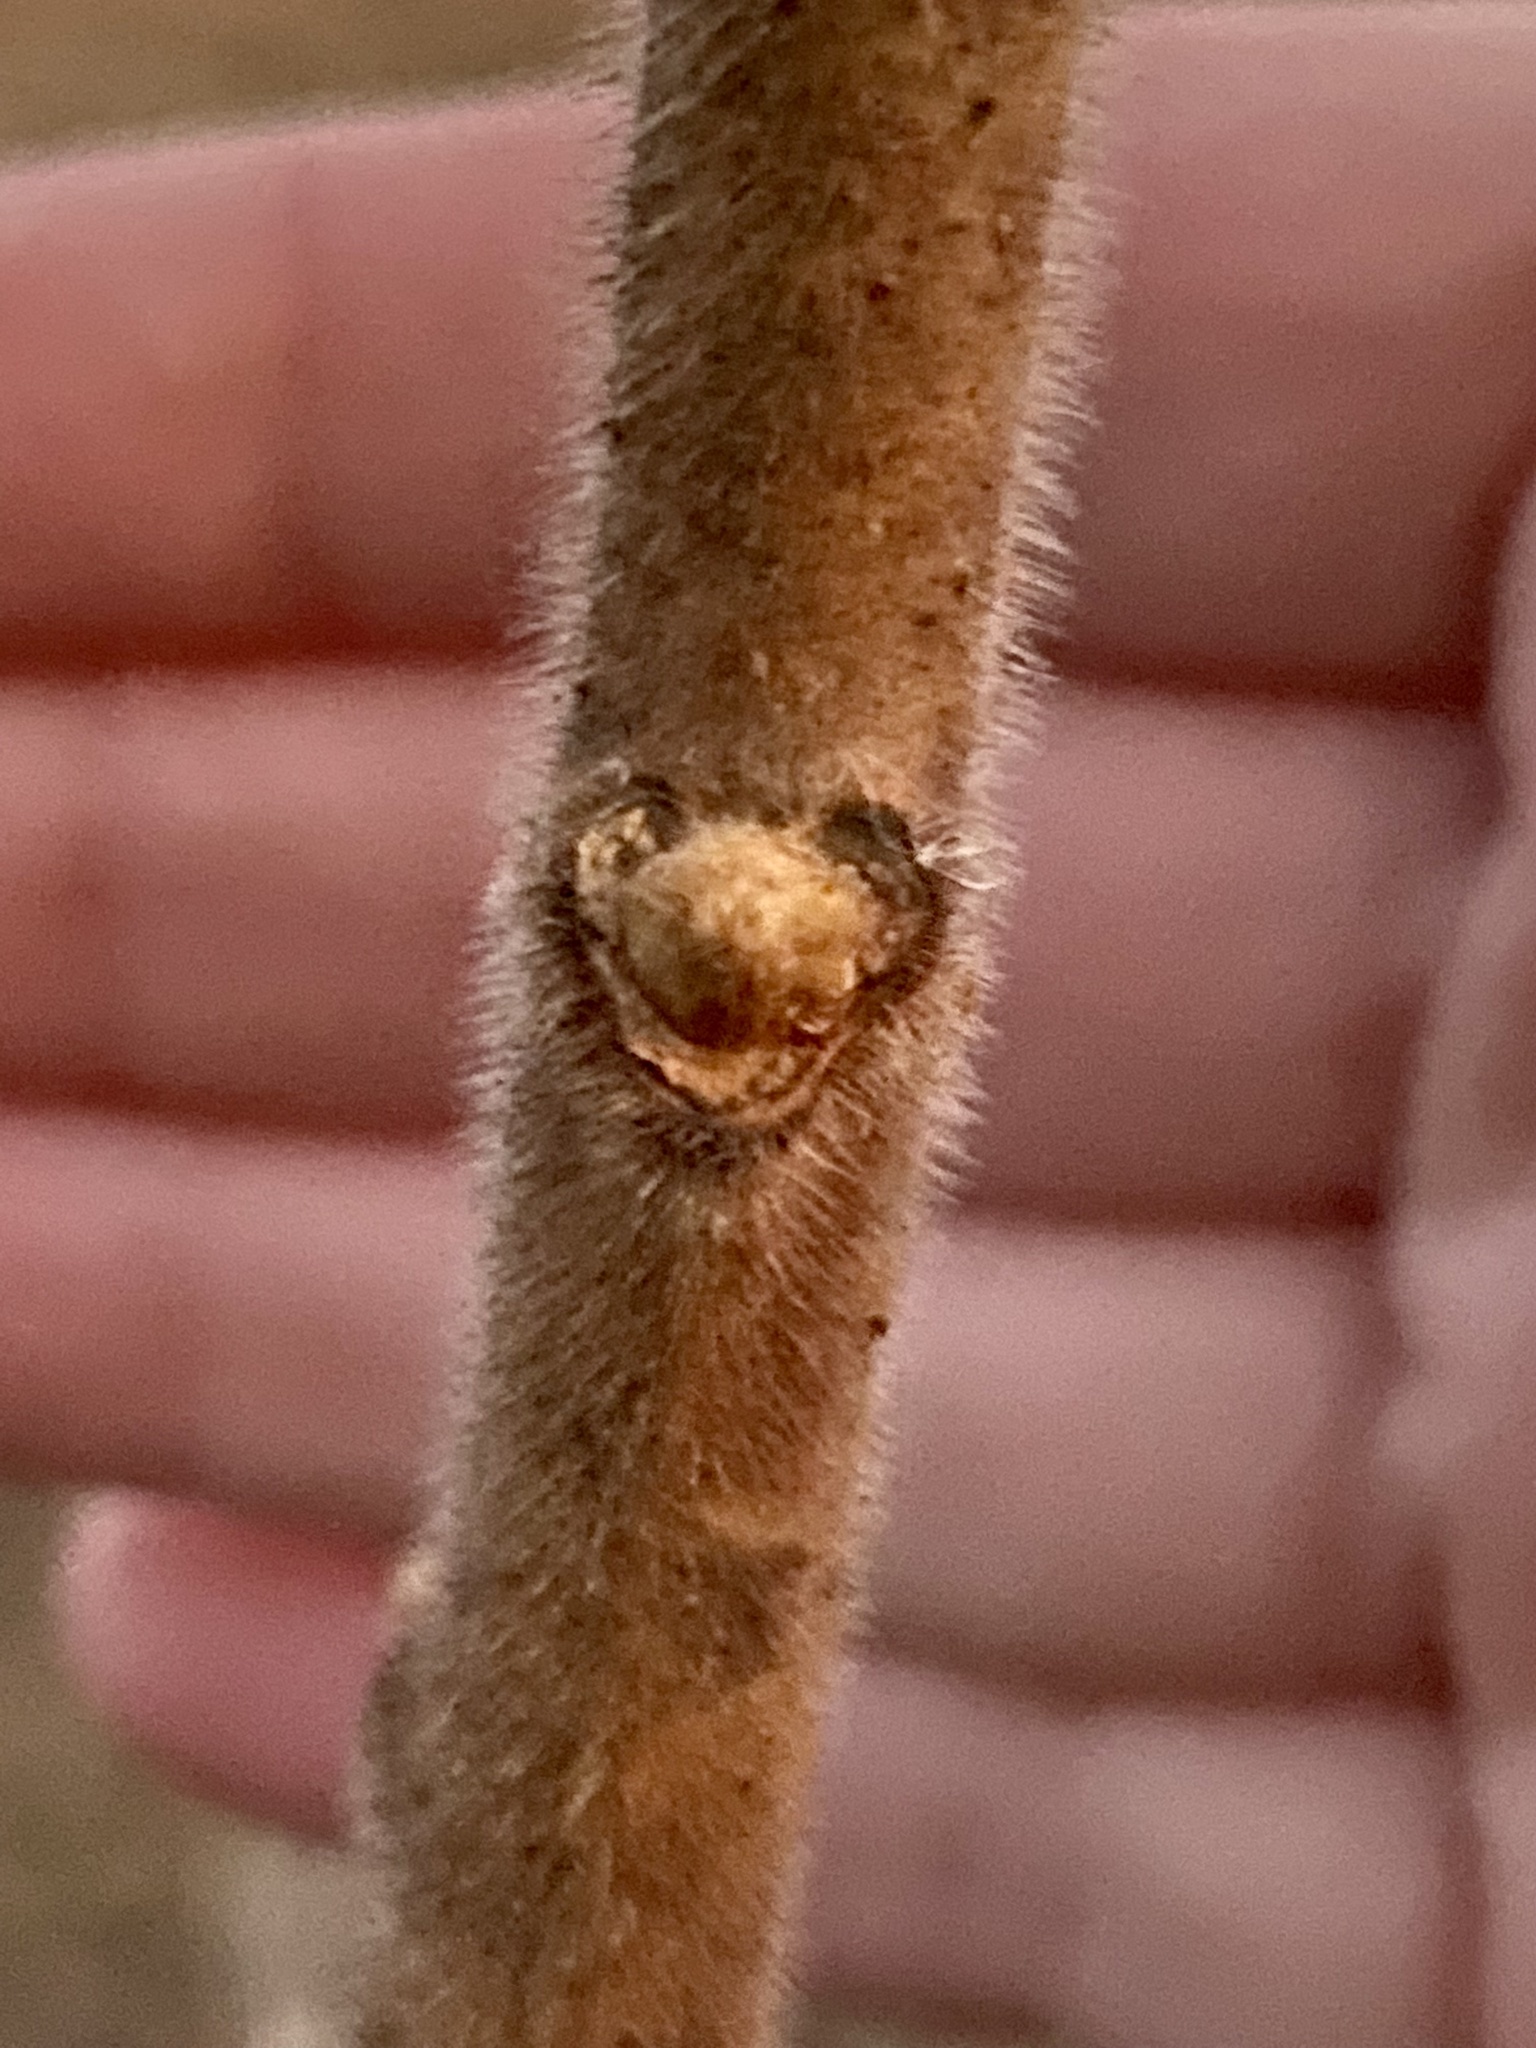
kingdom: Plantae
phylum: Tracheophyta
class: Magnoliopsida
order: Sapindales
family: Anacardiaceae
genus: Rhus
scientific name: Rhus typhina
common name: Staghorn sumac
